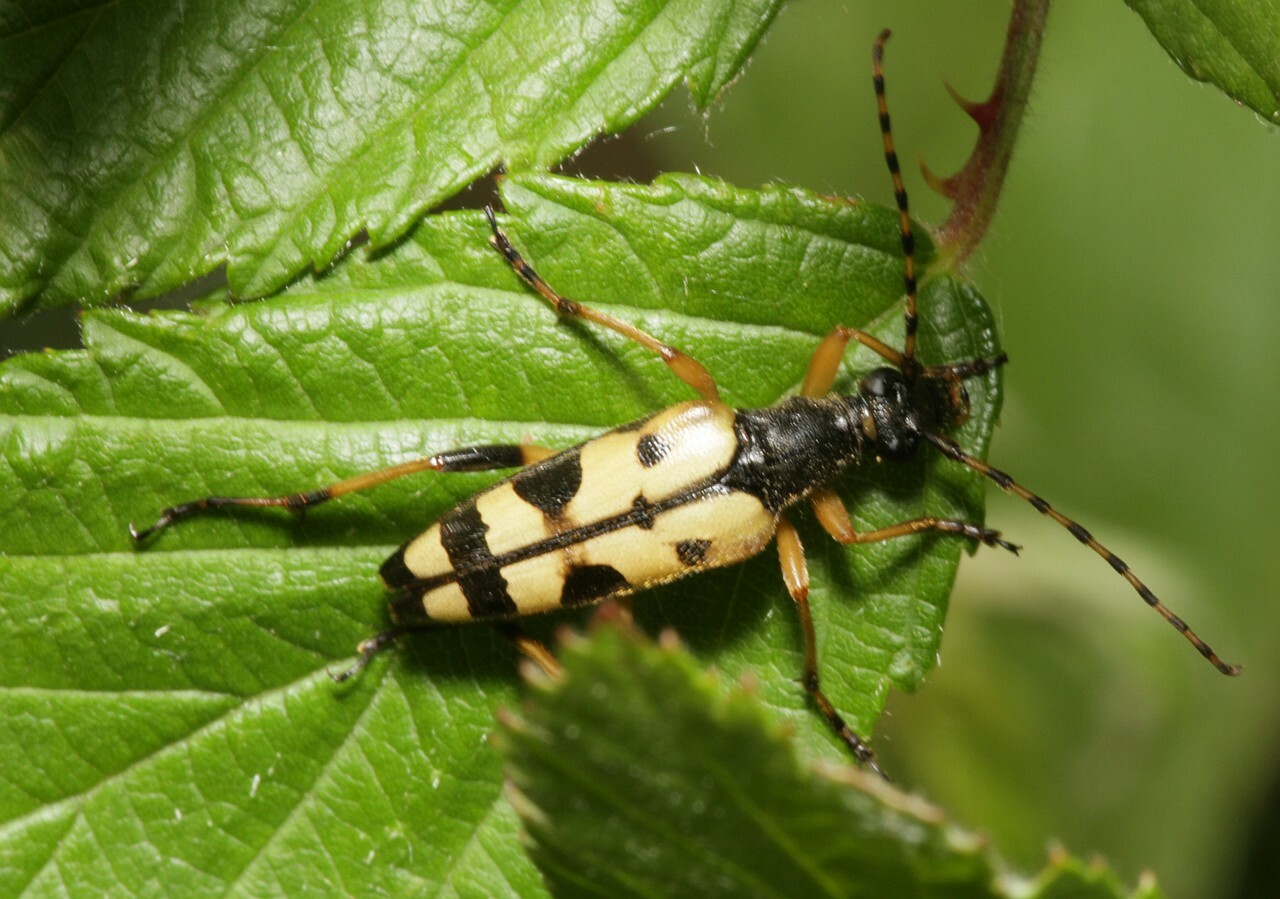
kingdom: Animalia
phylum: Arthropoda
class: Insecta
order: Coleoptera
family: Cerambycidae
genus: Rutpela
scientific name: Rutpela maculata
